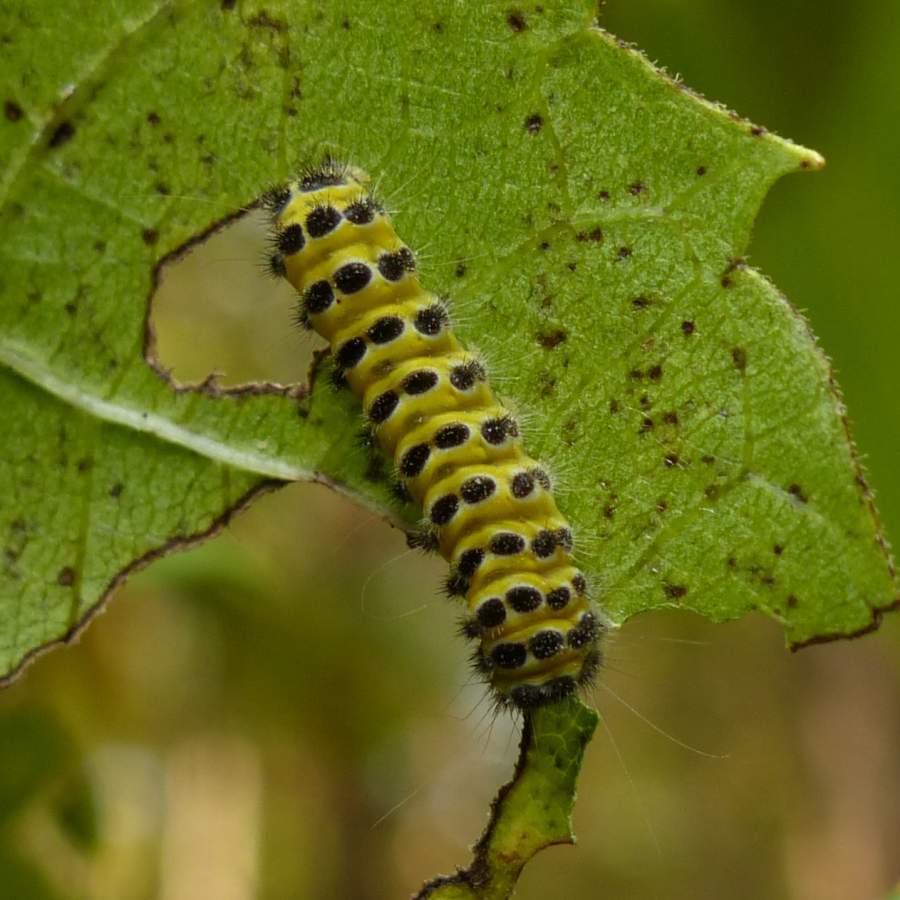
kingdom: Animalia
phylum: Arthropoda
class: Insecta
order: Lepidoptera
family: Zygaenidae
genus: Harrisina
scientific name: Harrisina americana
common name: Grapeleaf skeletonizer moth
